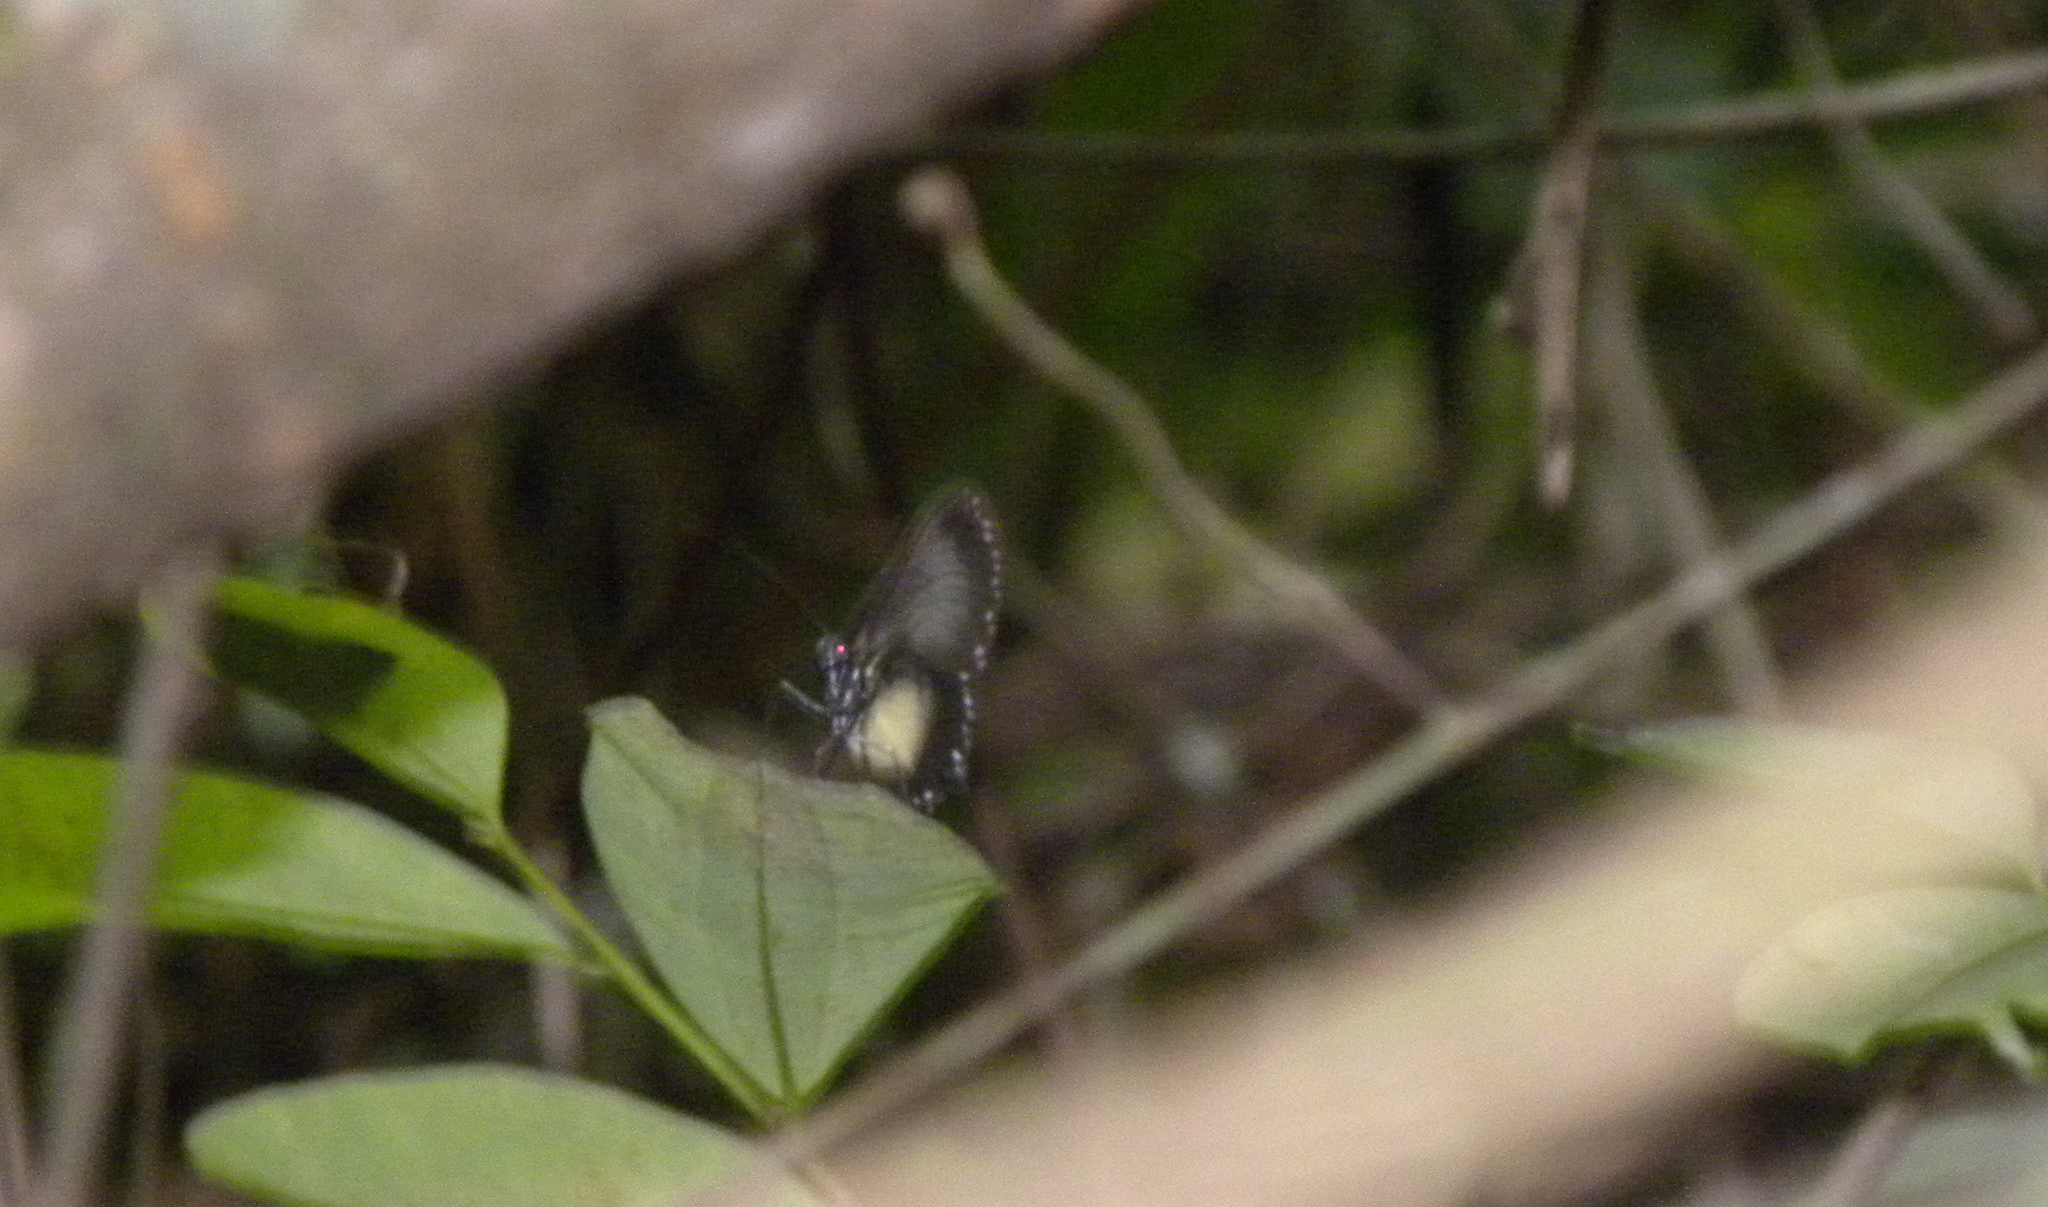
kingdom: Animalia
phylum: Arthropoda
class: Insecta
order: Lepidoptera
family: Nymphalidae
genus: Hyalyris
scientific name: Hyalyris coeno
